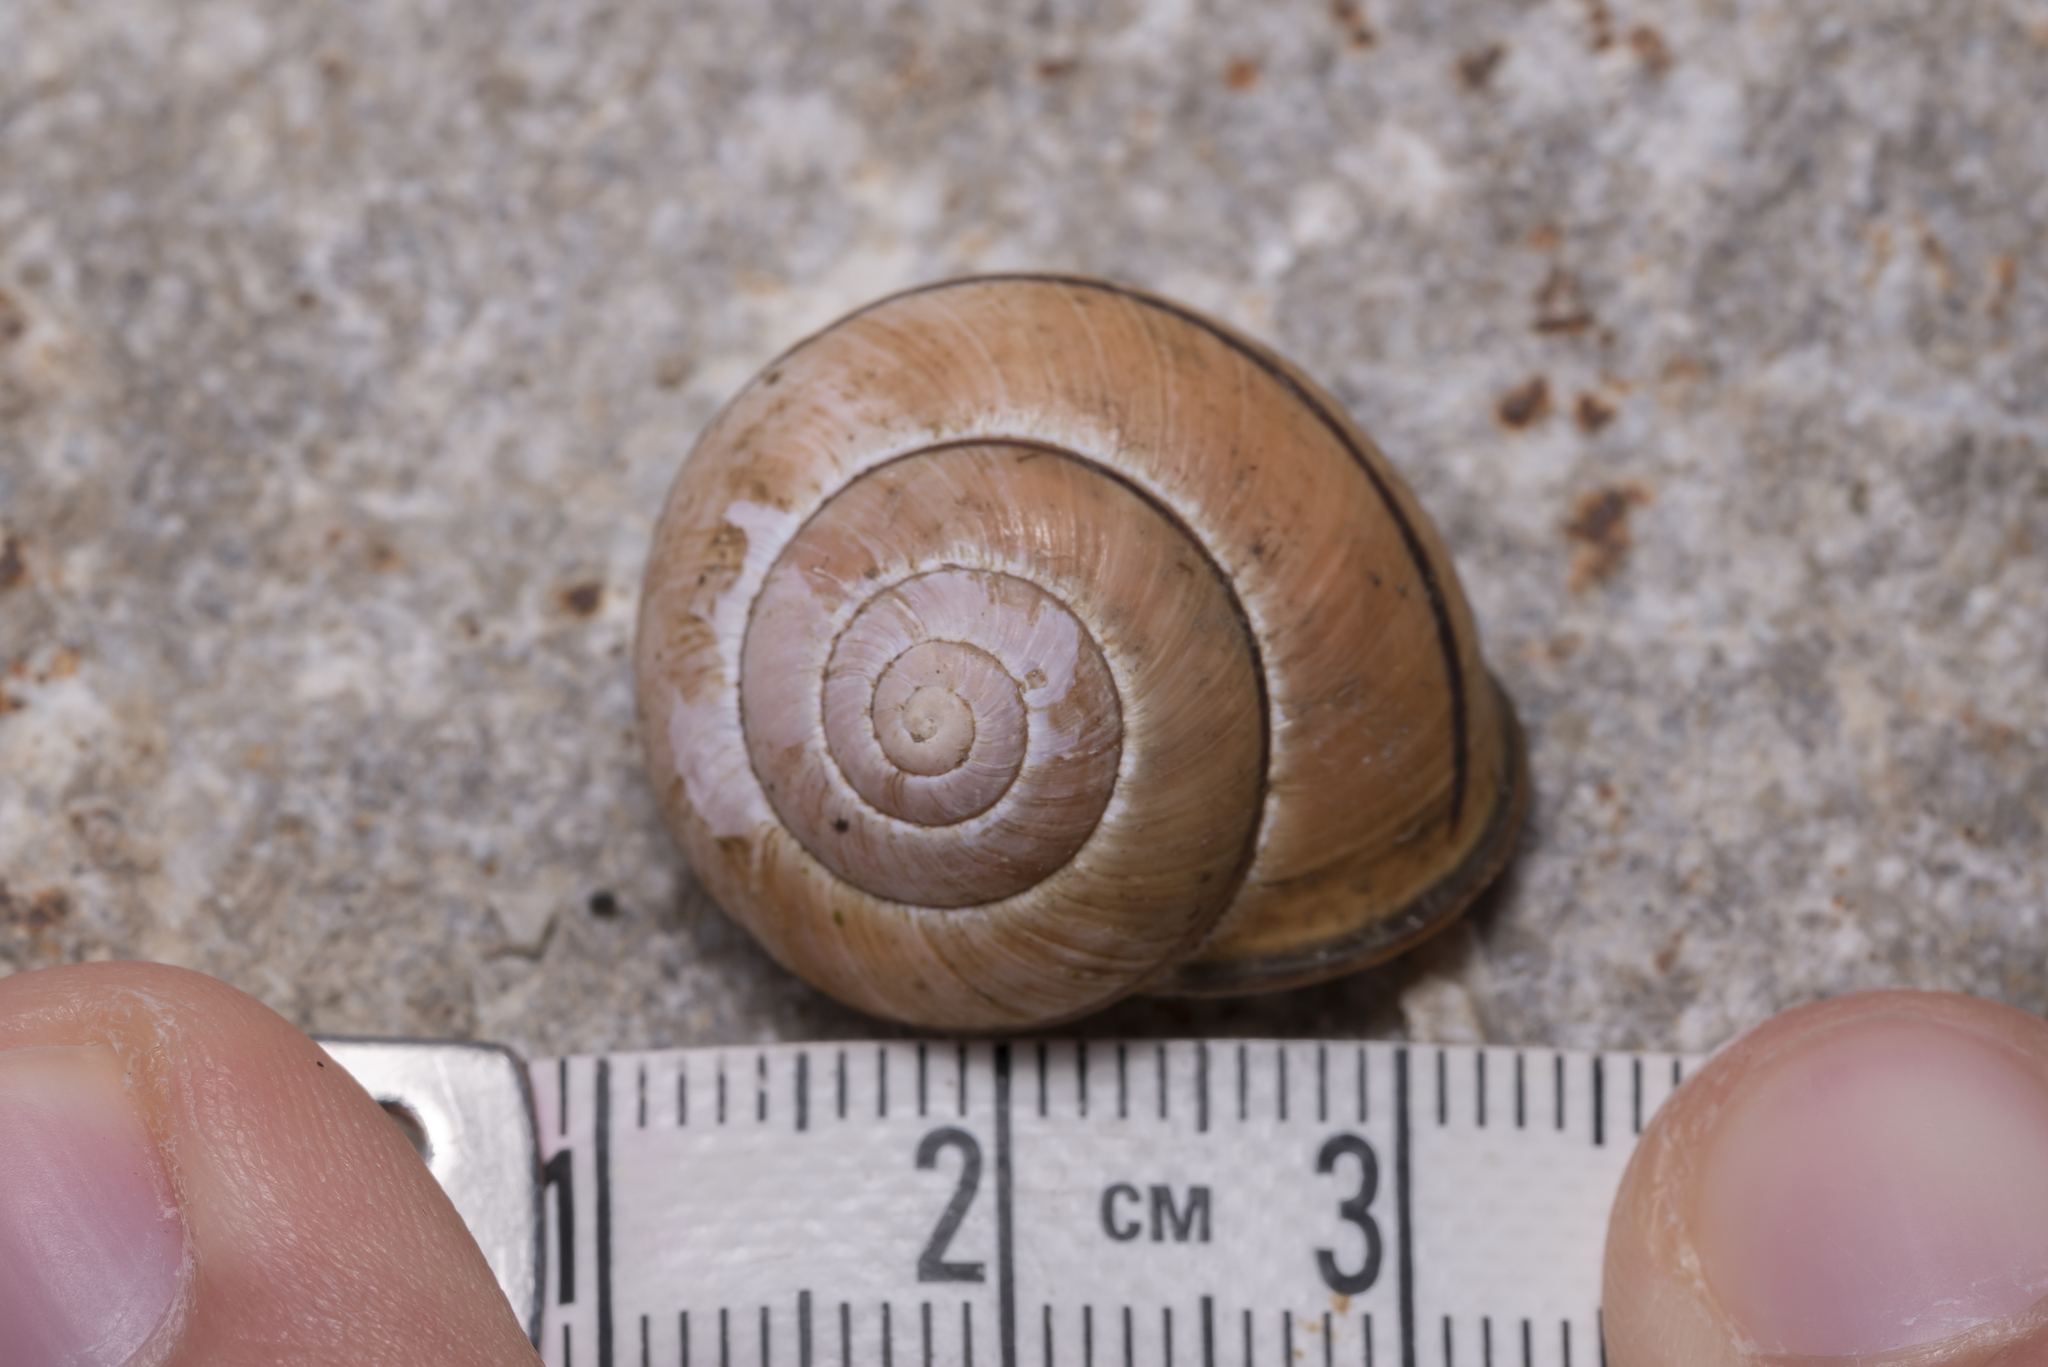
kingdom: Animalia
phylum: Mollusca
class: Gastropoda
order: Stylommatophora
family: Helicidae
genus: Cepaea
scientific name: Cepaea nemoralis
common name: Grovesnail
